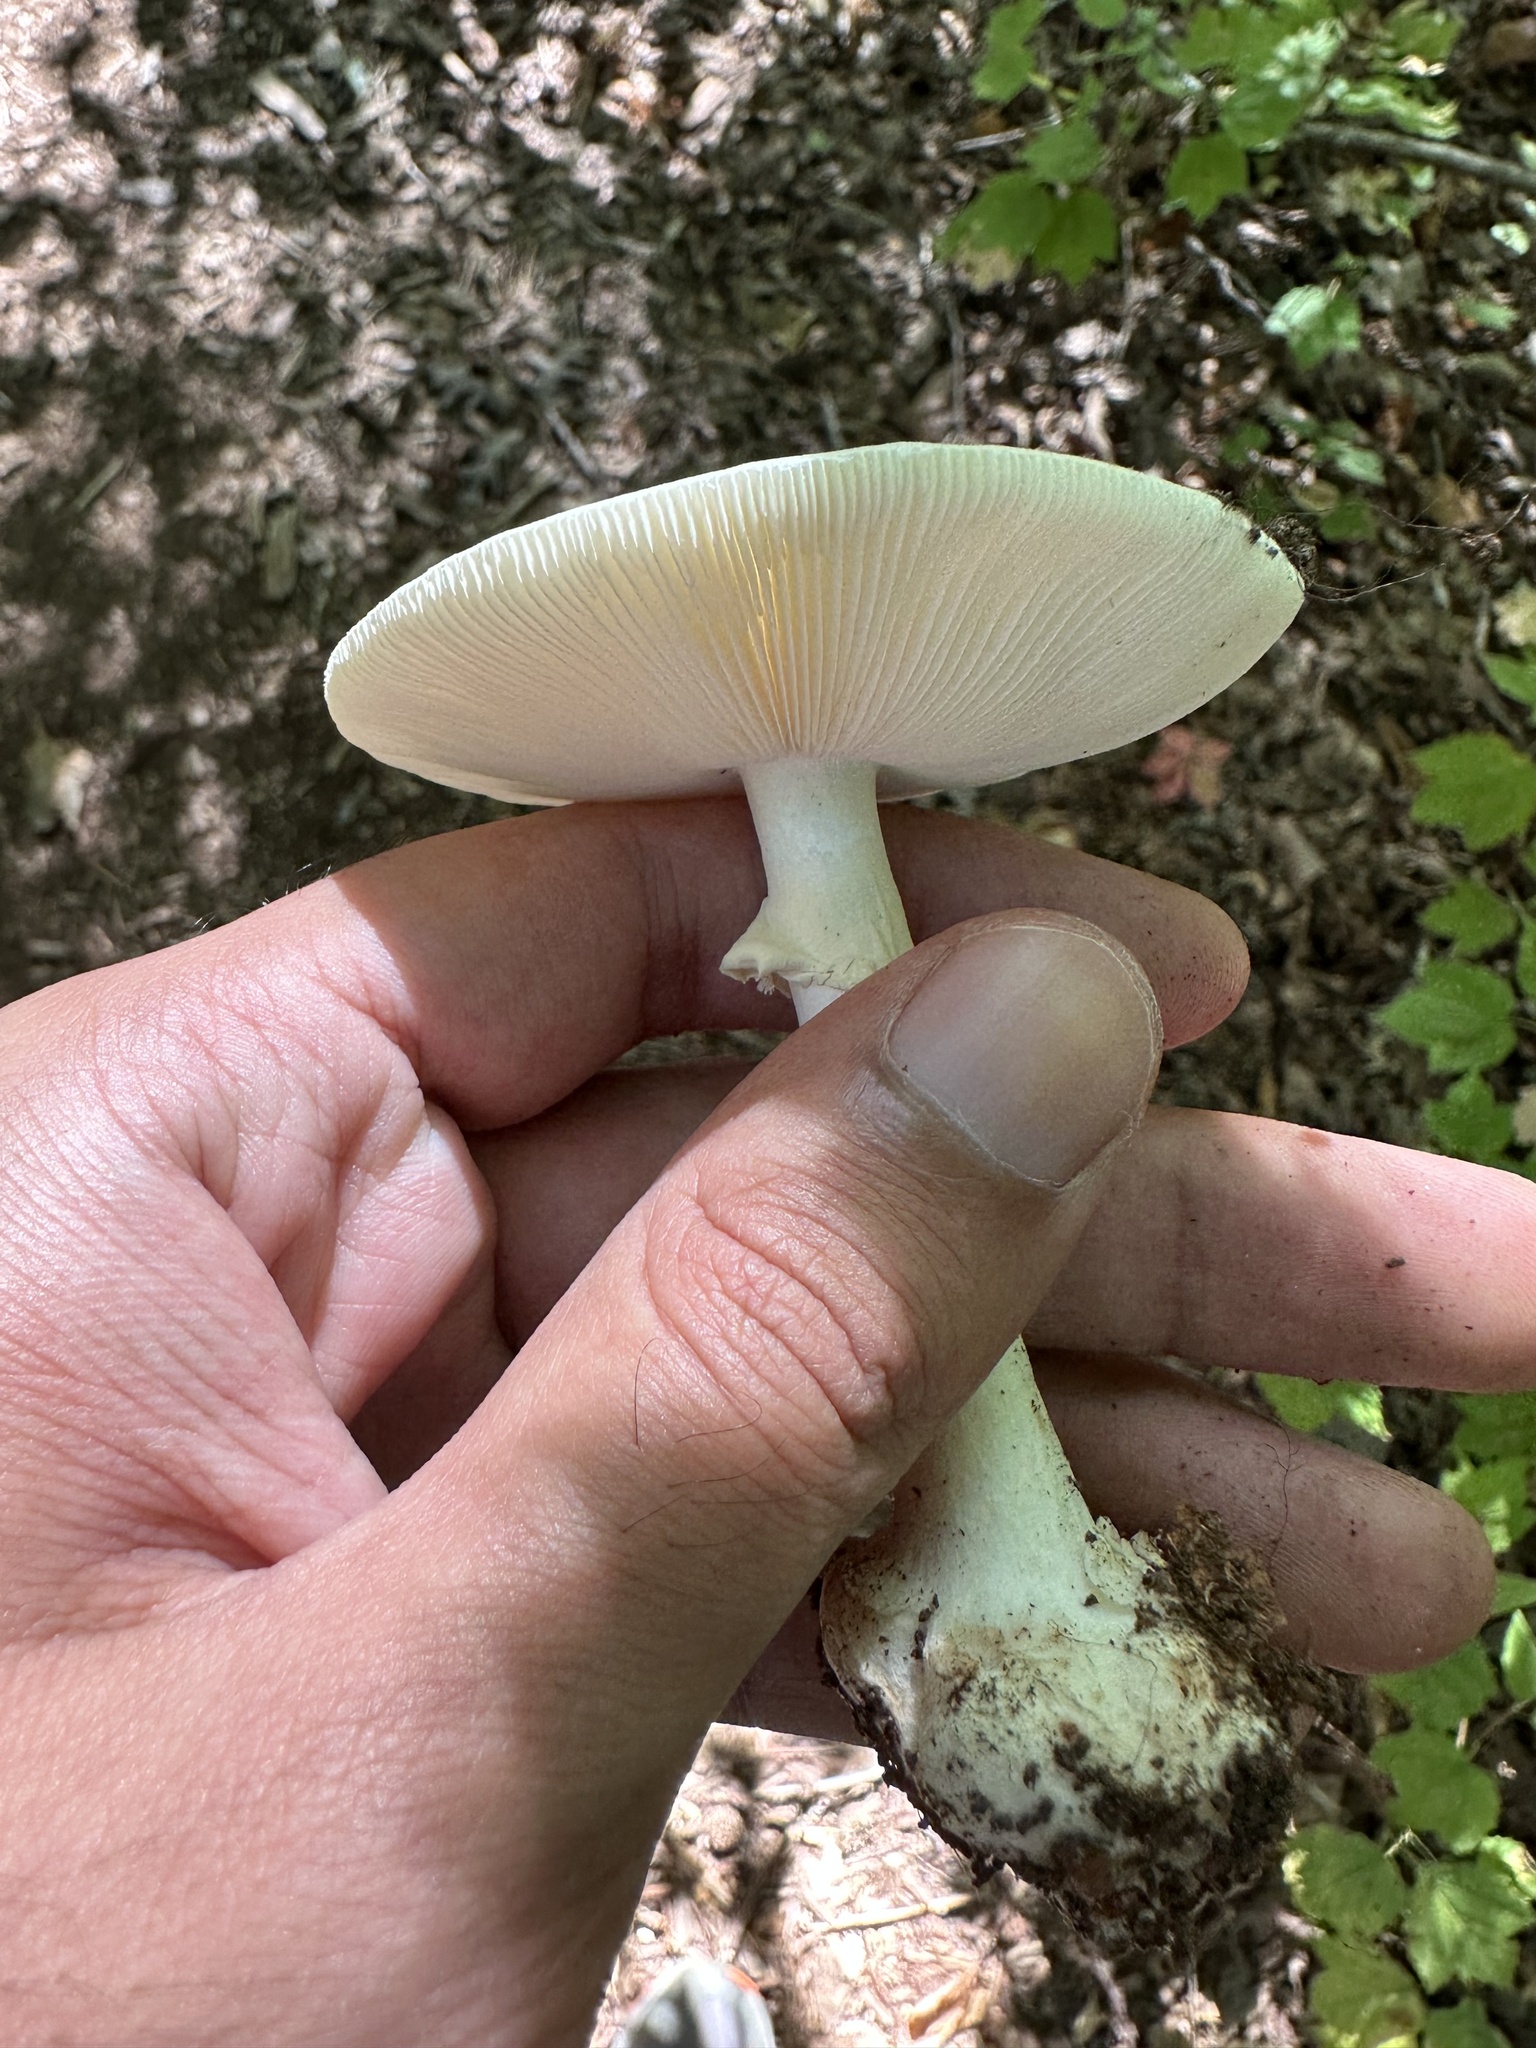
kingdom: Fungi
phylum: Basidiomycota
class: Agaricomycetes
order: Agaricales
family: Amanitaceae
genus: Amanita
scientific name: Amanita brunnescens
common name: Brown american star-footed amanita
